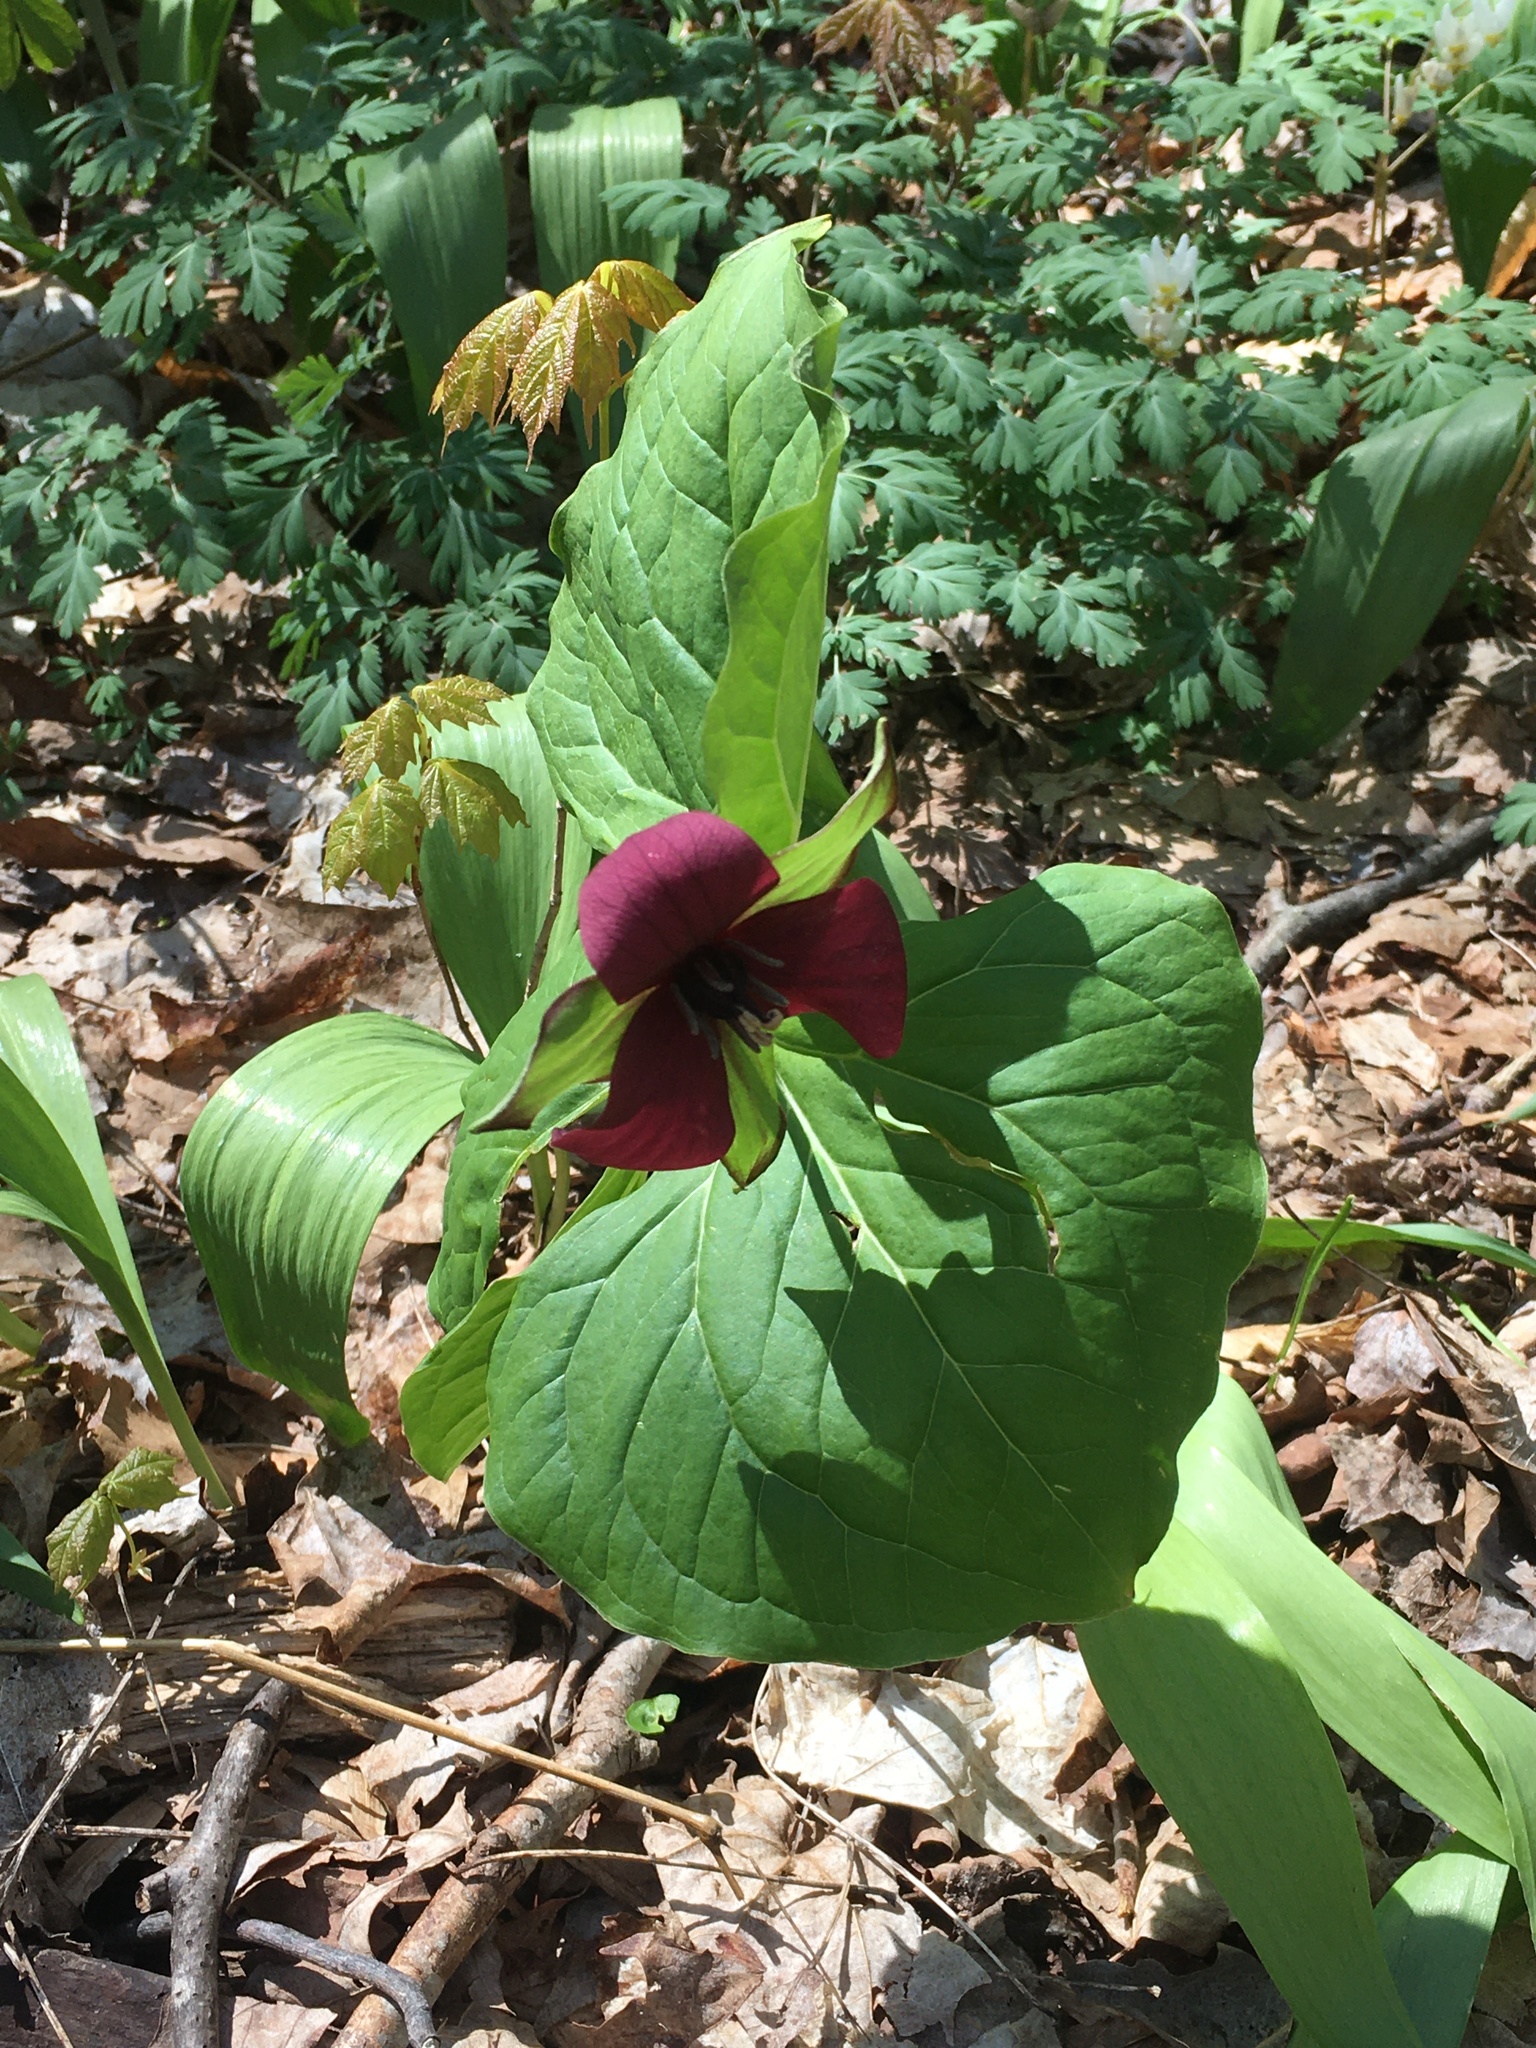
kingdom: Plantae
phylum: Tracheophyta
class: Liliopsida
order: Liliales
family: Melanthiaceae
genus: Trillium
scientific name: Trillium erectum
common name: Purple trillium
